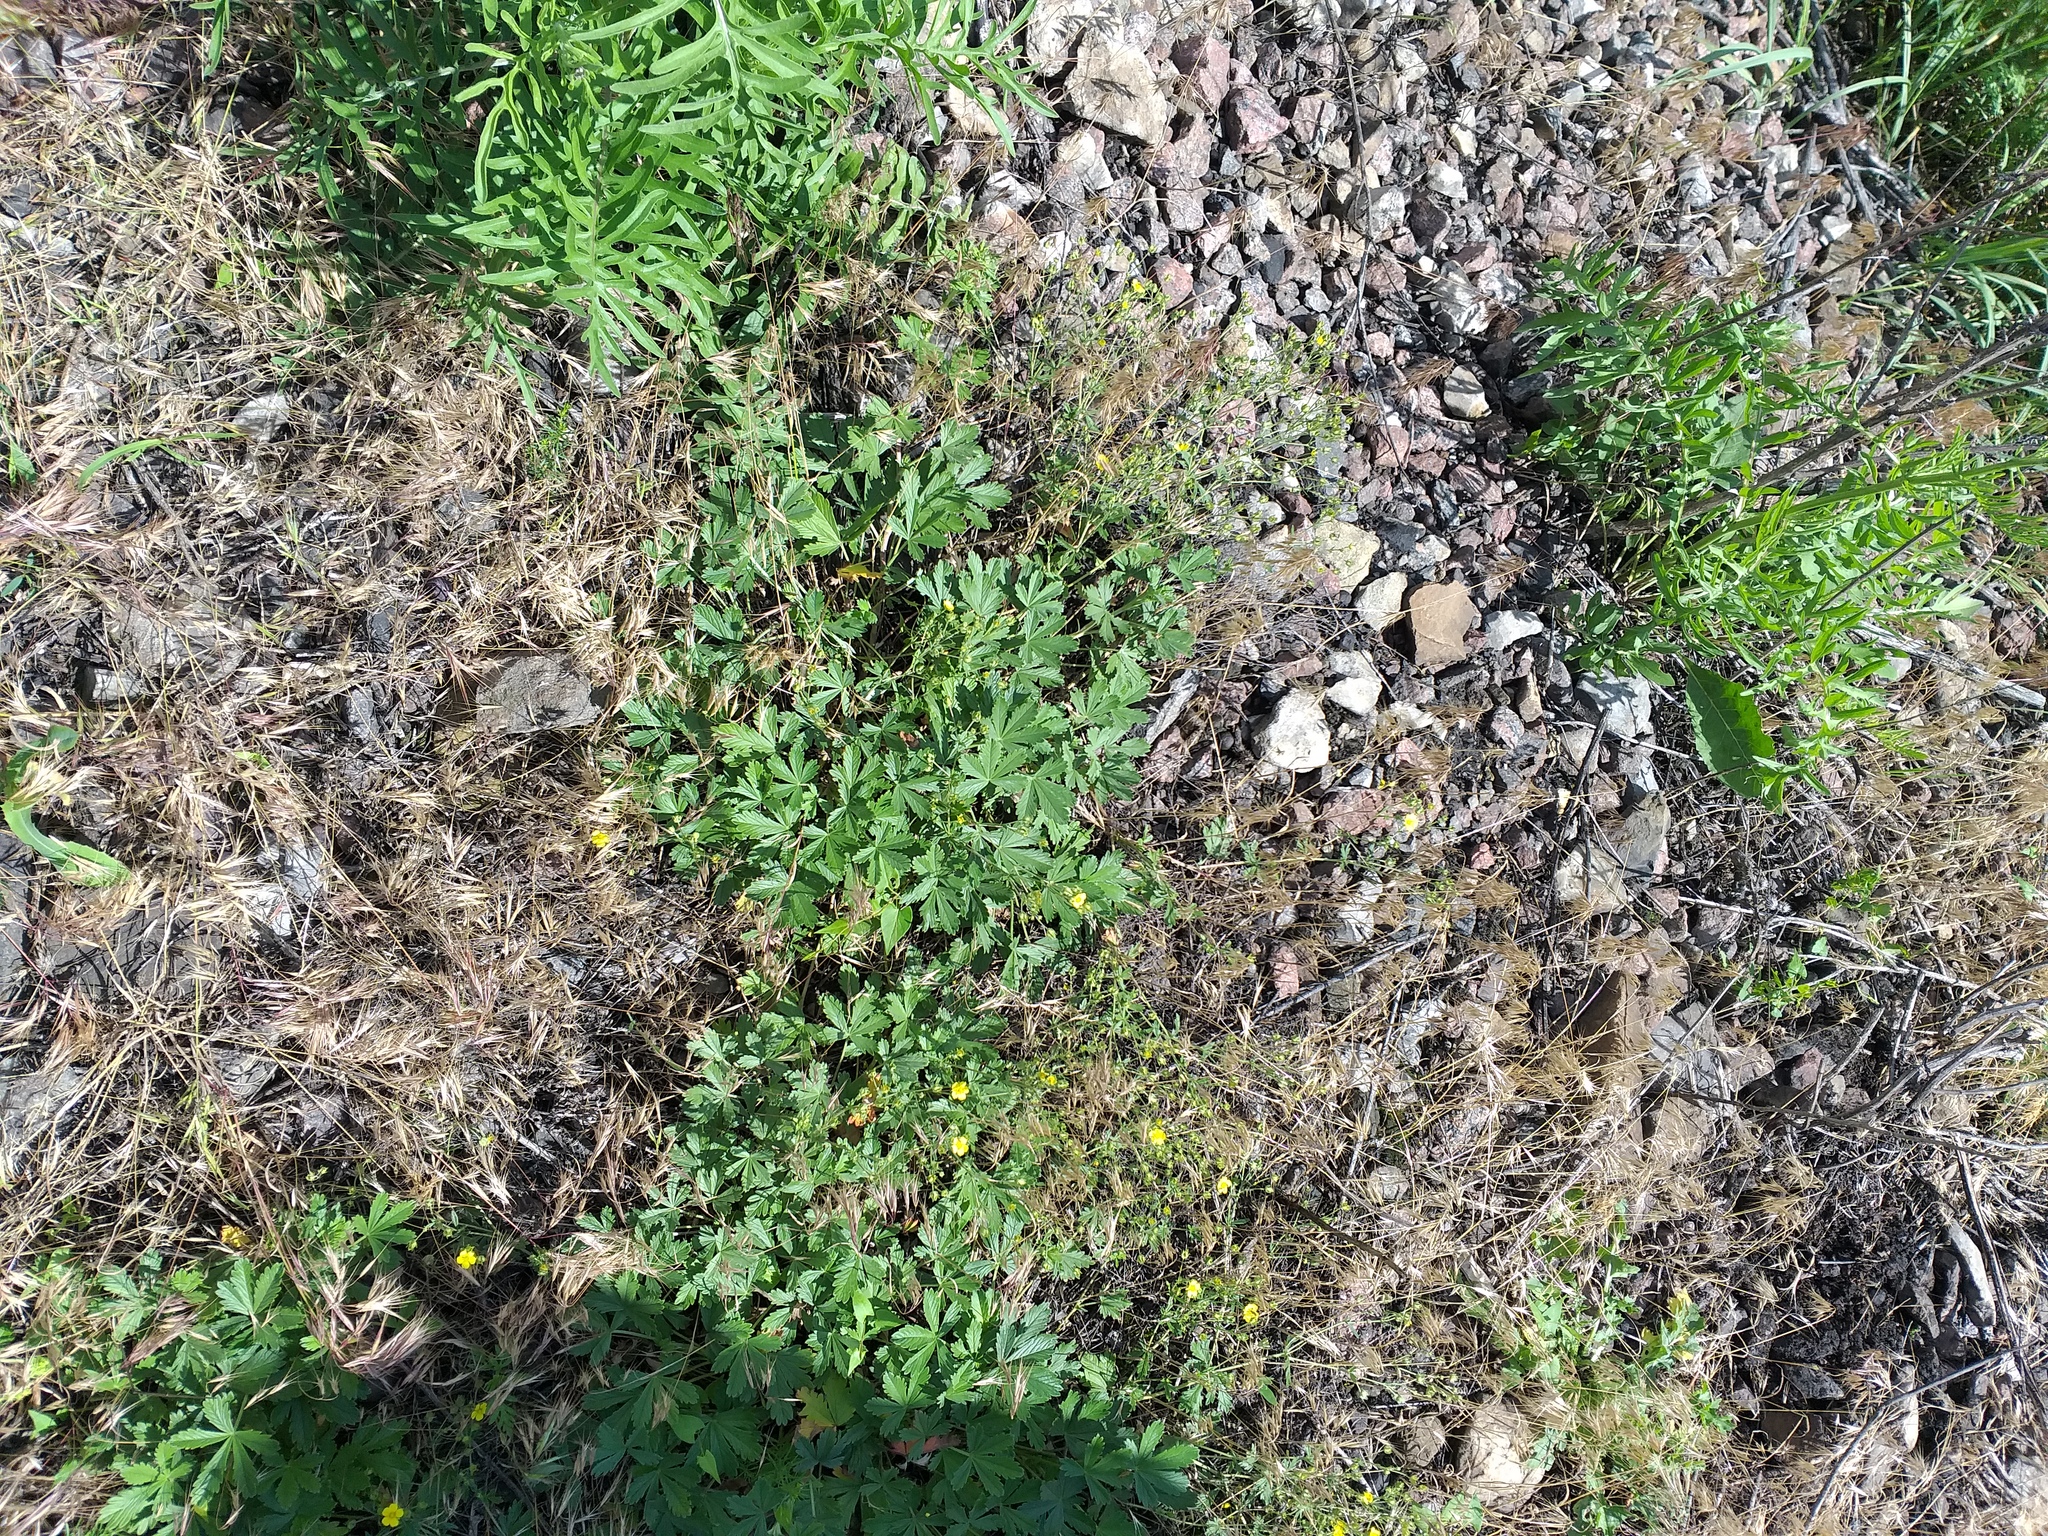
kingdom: Plantae
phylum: Tracheophyta
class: Magnoliopsida
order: Rosales
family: Rosaceae
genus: Potentilla
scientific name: Potentilla collina
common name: Palmleaf cinquefoil
